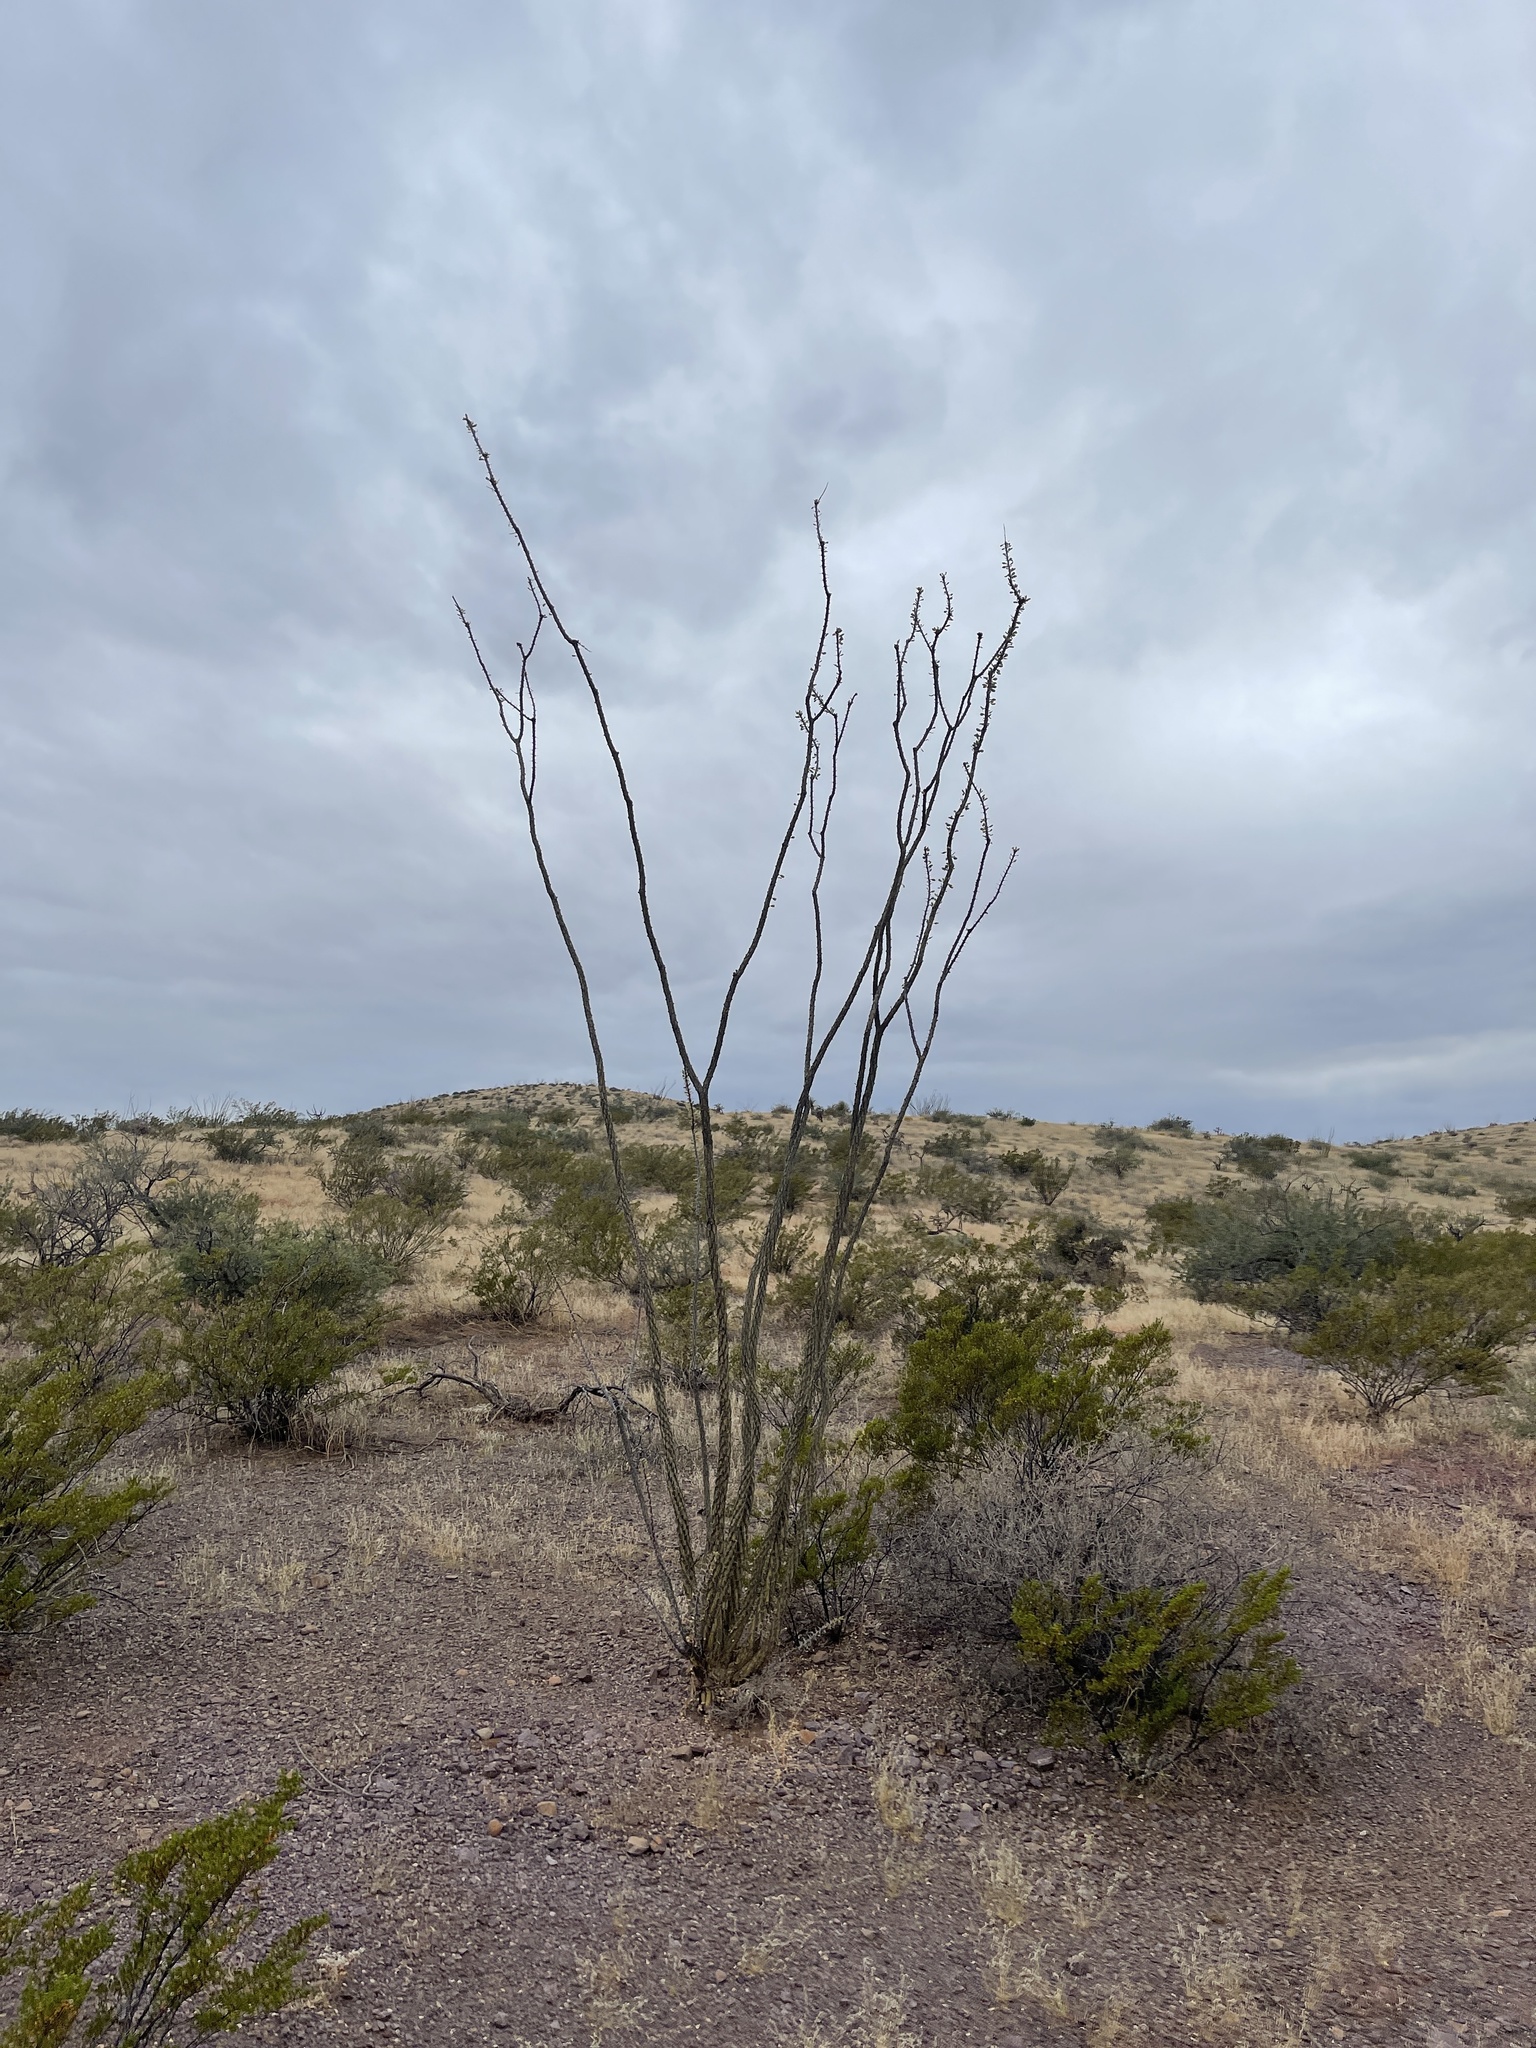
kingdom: Plantae
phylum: Tracheophyta
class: Magnoliopsida
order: Ericales
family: Fouquieriaceae
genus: Fouquieria
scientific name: Fouquieria splendens
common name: Vine-cactus
